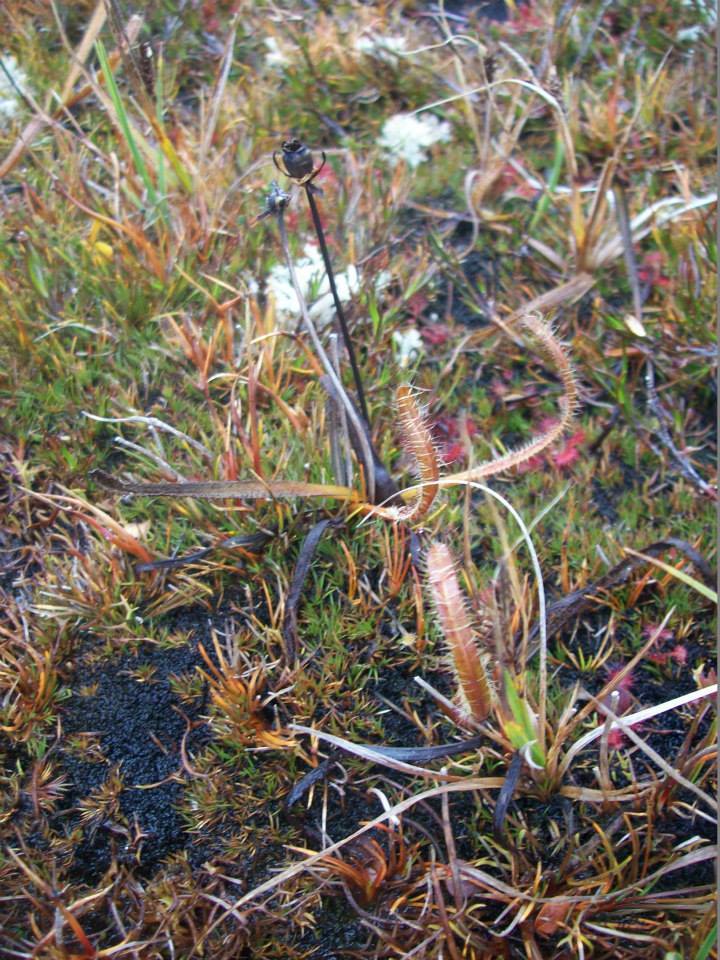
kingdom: Plantae
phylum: Tracheophyta
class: Magnoliopsida
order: Caryophyllales
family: Droseraceae
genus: Drosera
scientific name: Drosera arcturi
